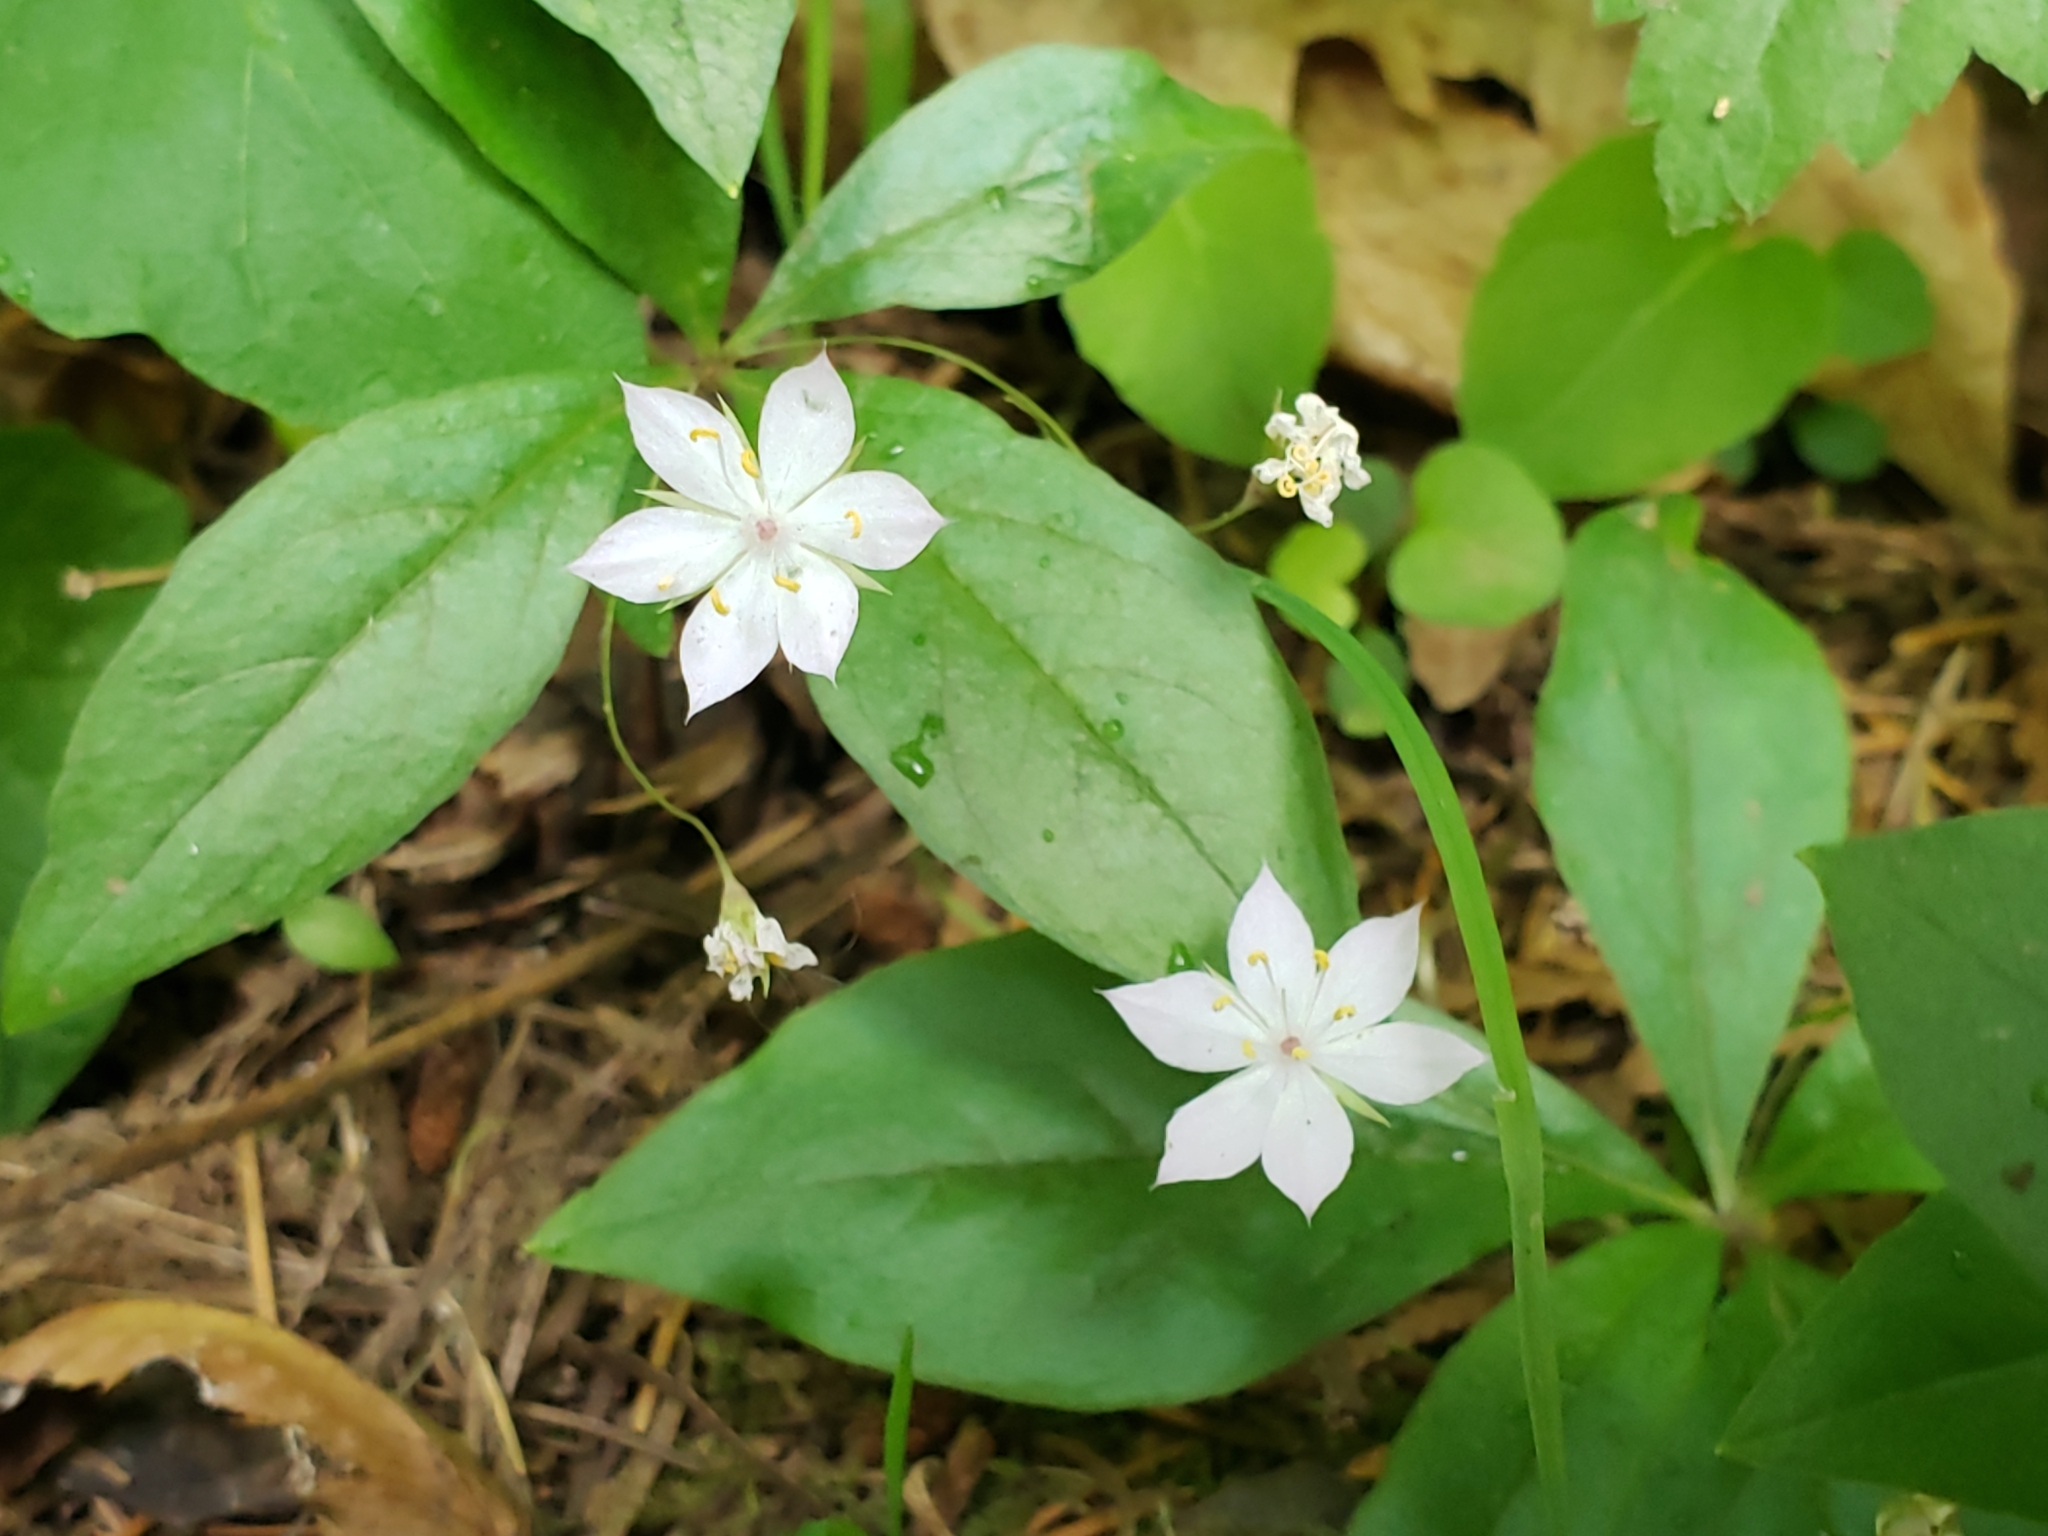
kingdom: Plantae
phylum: Tracheophyta
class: Magnoliopsida
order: Ericales
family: Primulaceae
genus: Lysimachia
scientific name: Lysimachia latifolia
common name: Pacific starflower
